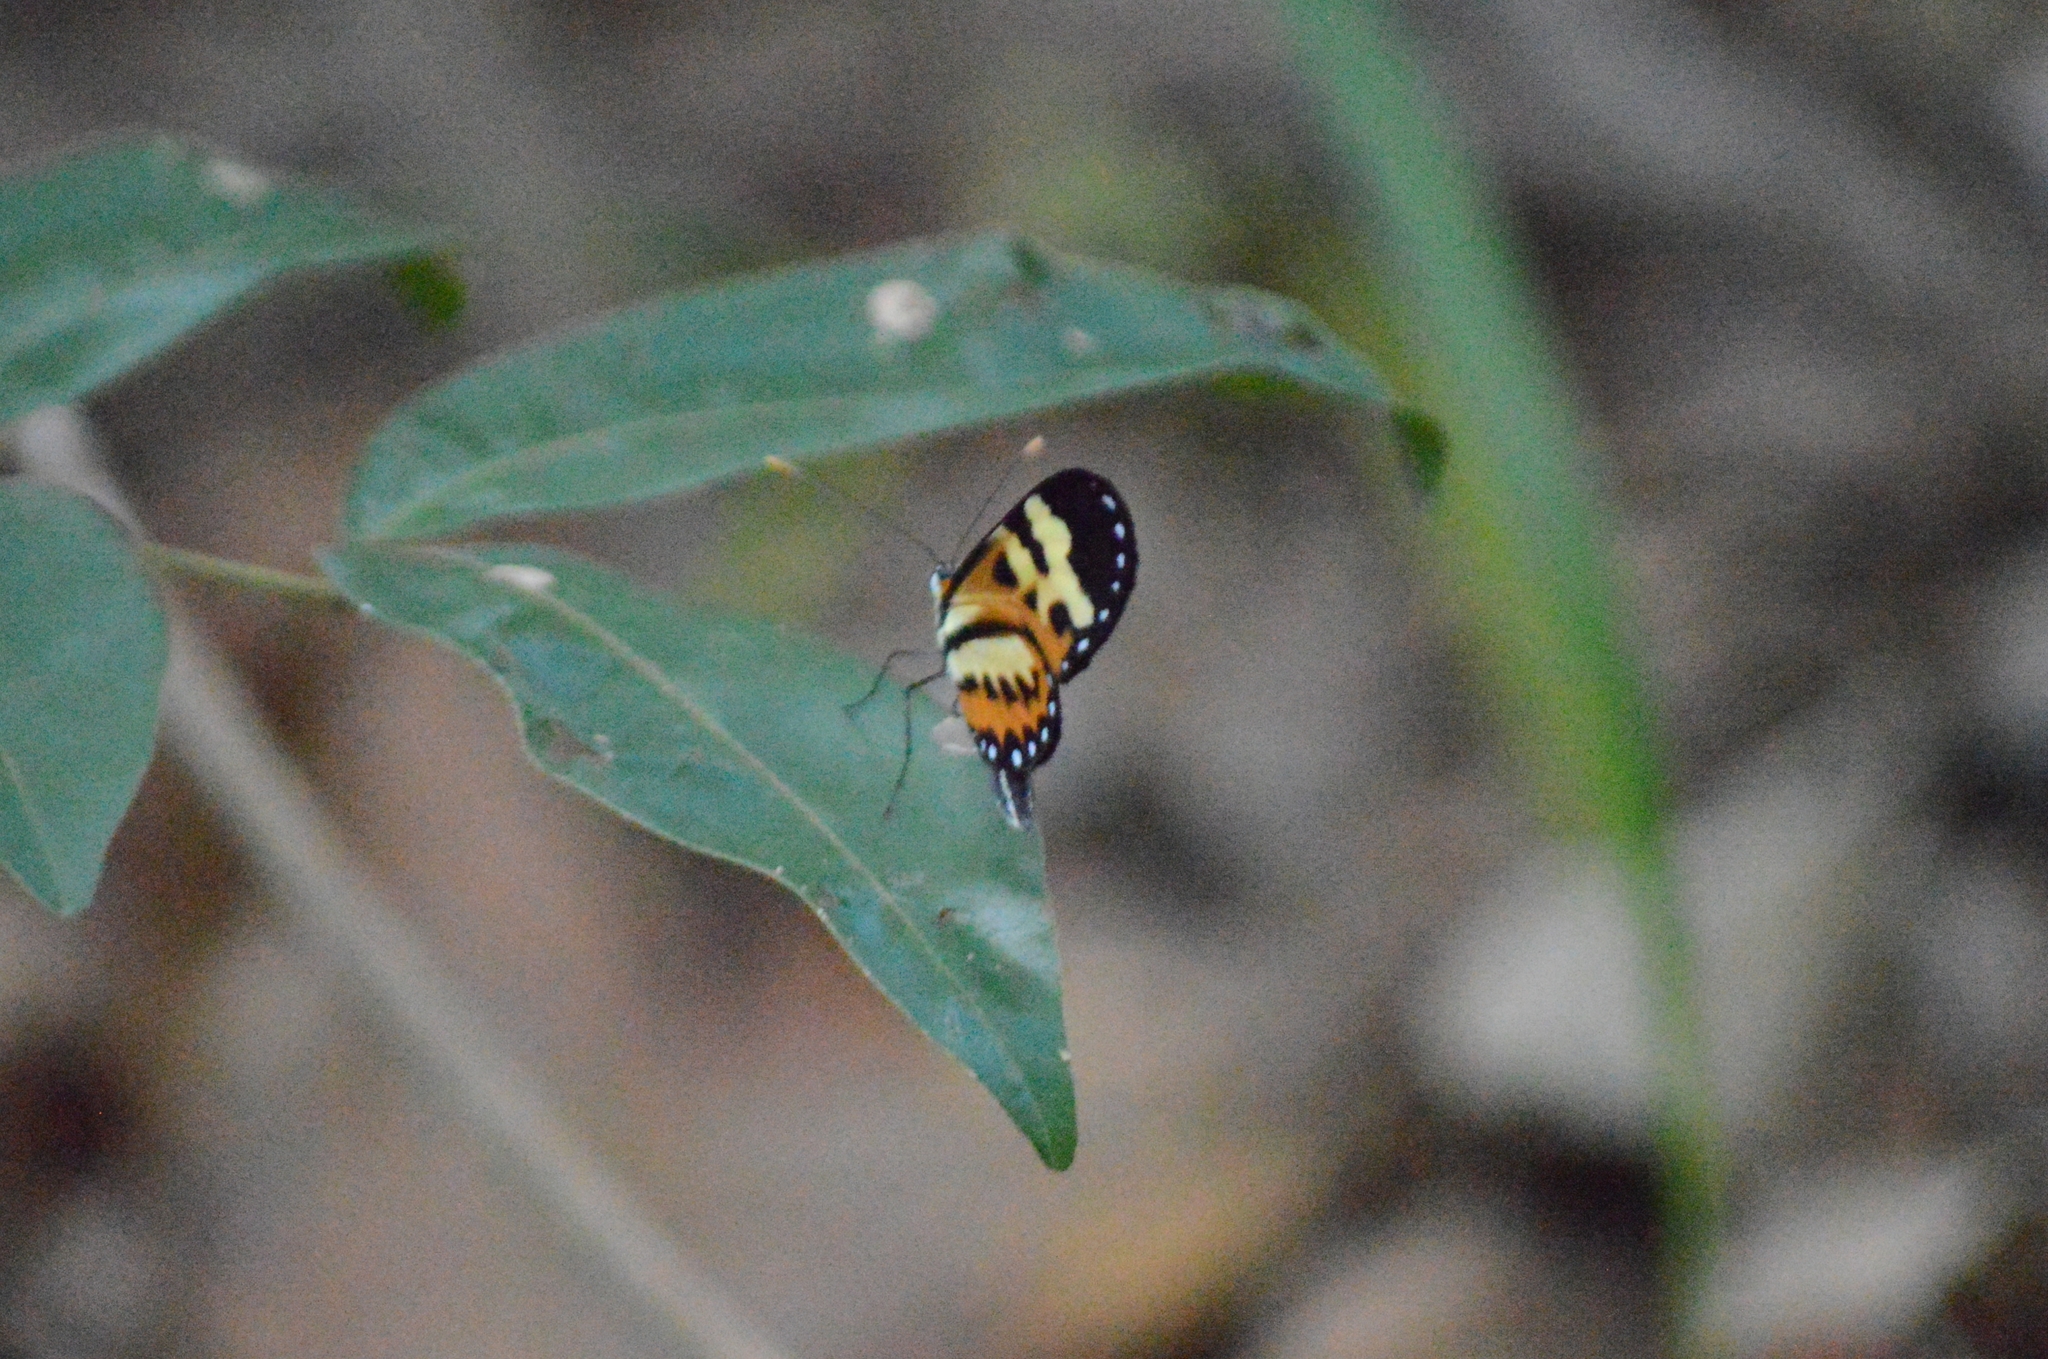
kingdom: Animalia
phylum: Arthropoda
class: Insecta
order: Lepidoptera
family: Nymphalidae
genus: Mechanitis
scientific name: Mechanitis polymnia
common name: Disturbed tigerwing
